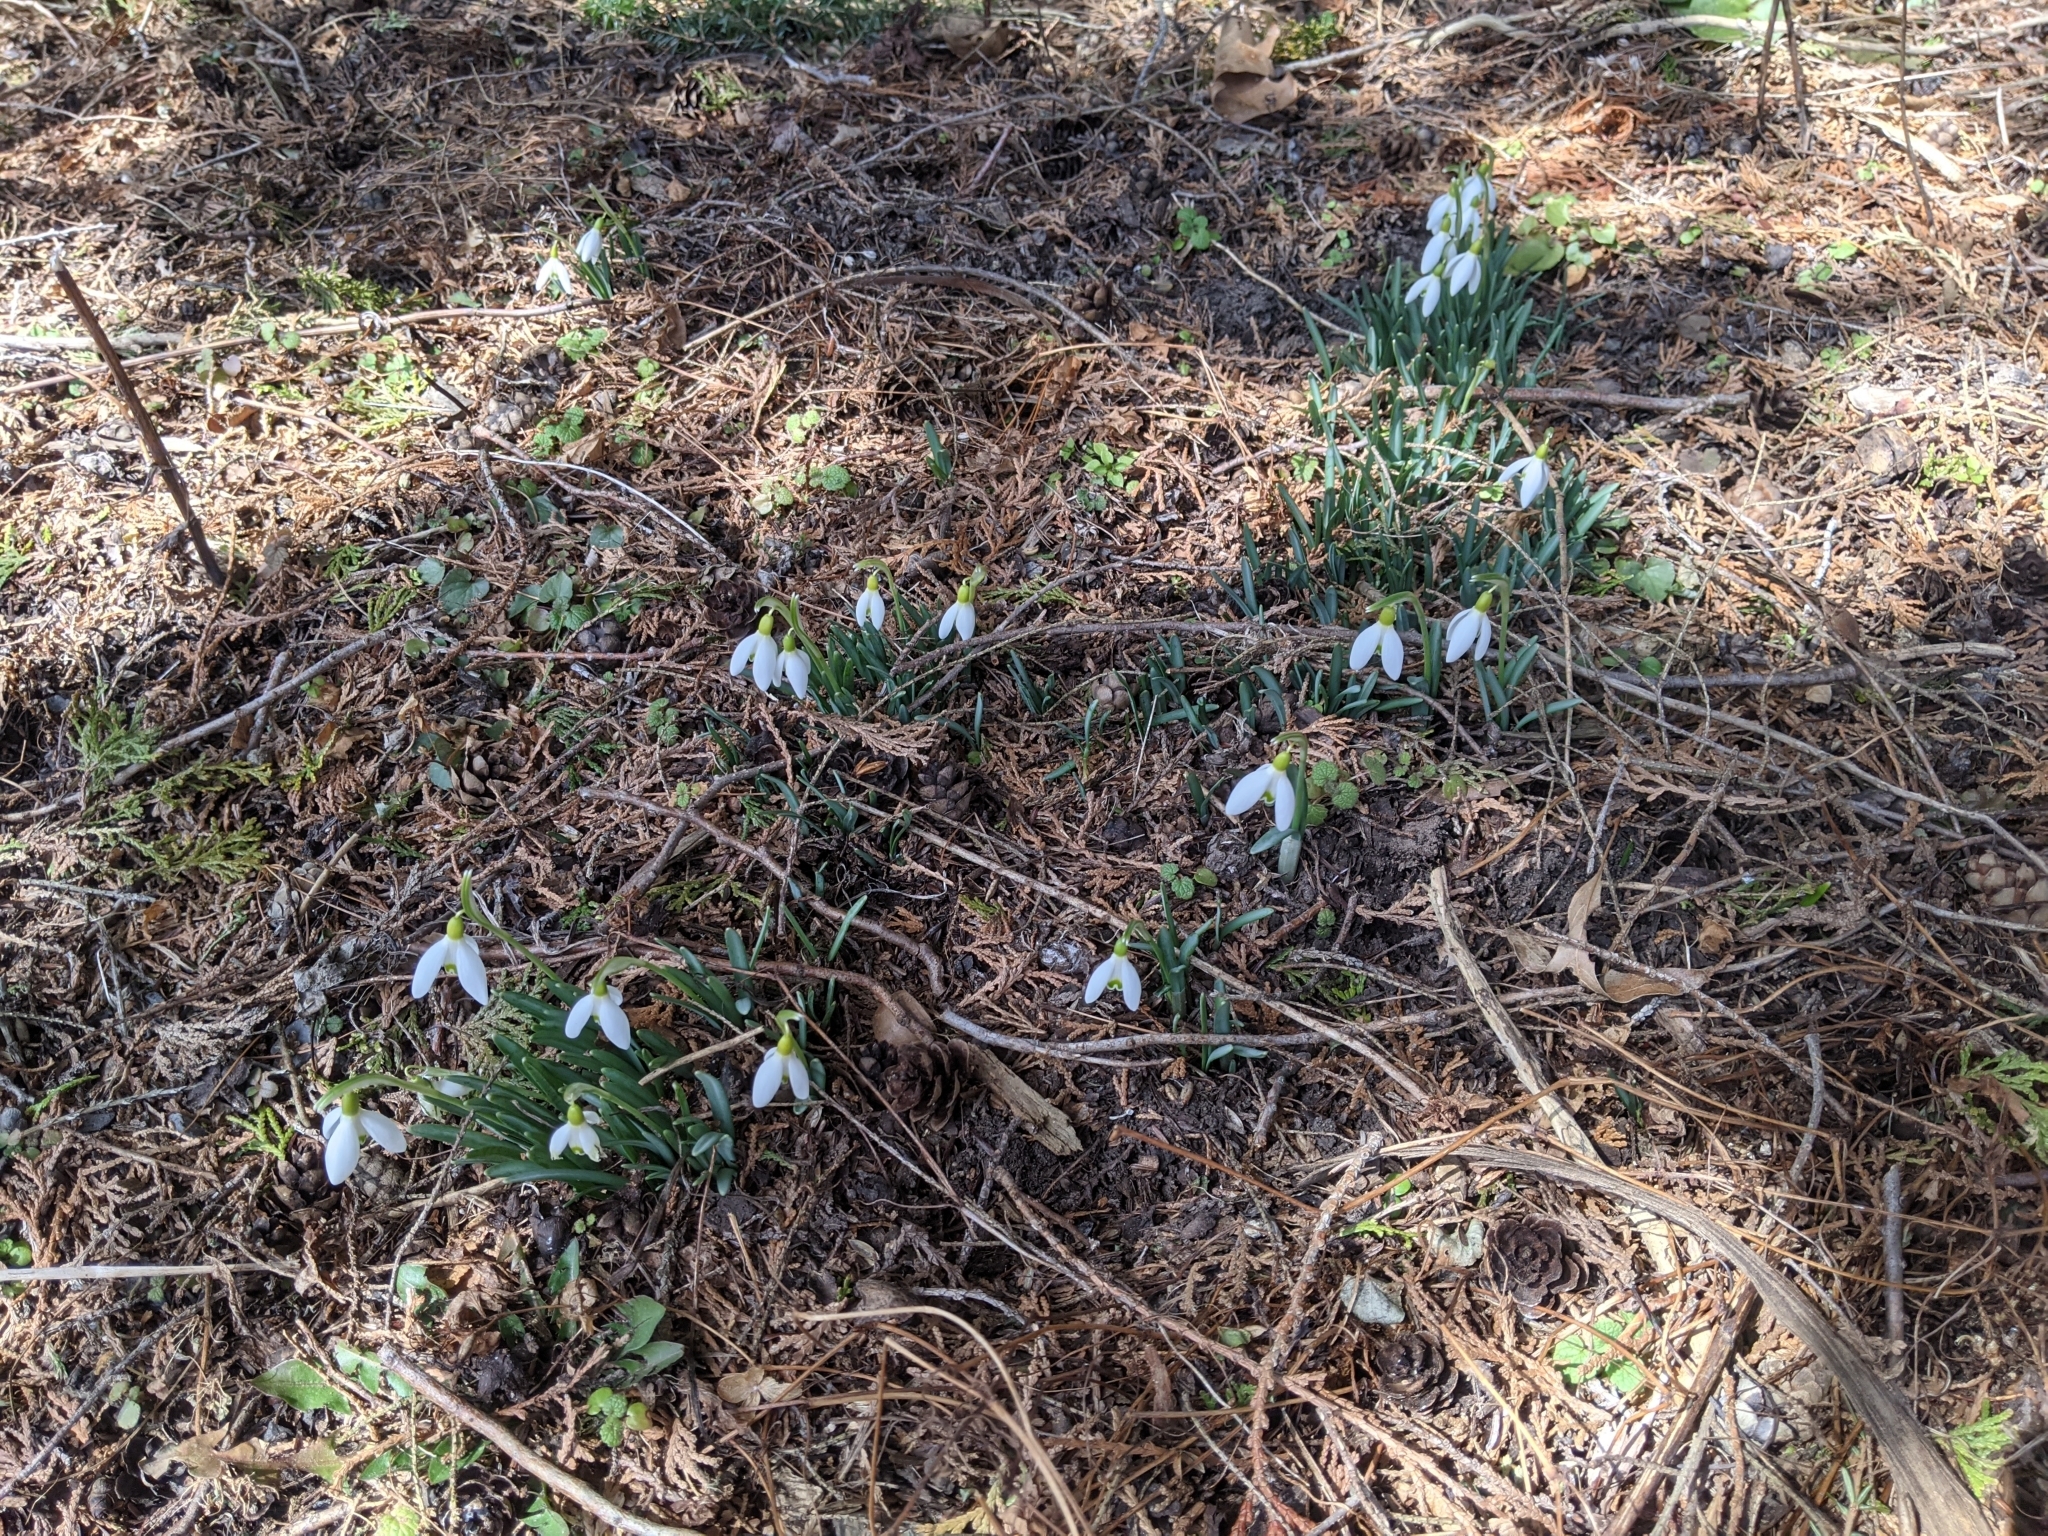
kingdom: Plantae
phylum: Tracheophyta
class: Liliopsida
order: Asparagales
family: Amaryllidaceae
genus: Galanthus
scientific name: Galanthus nivalis
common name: Snowdrop
